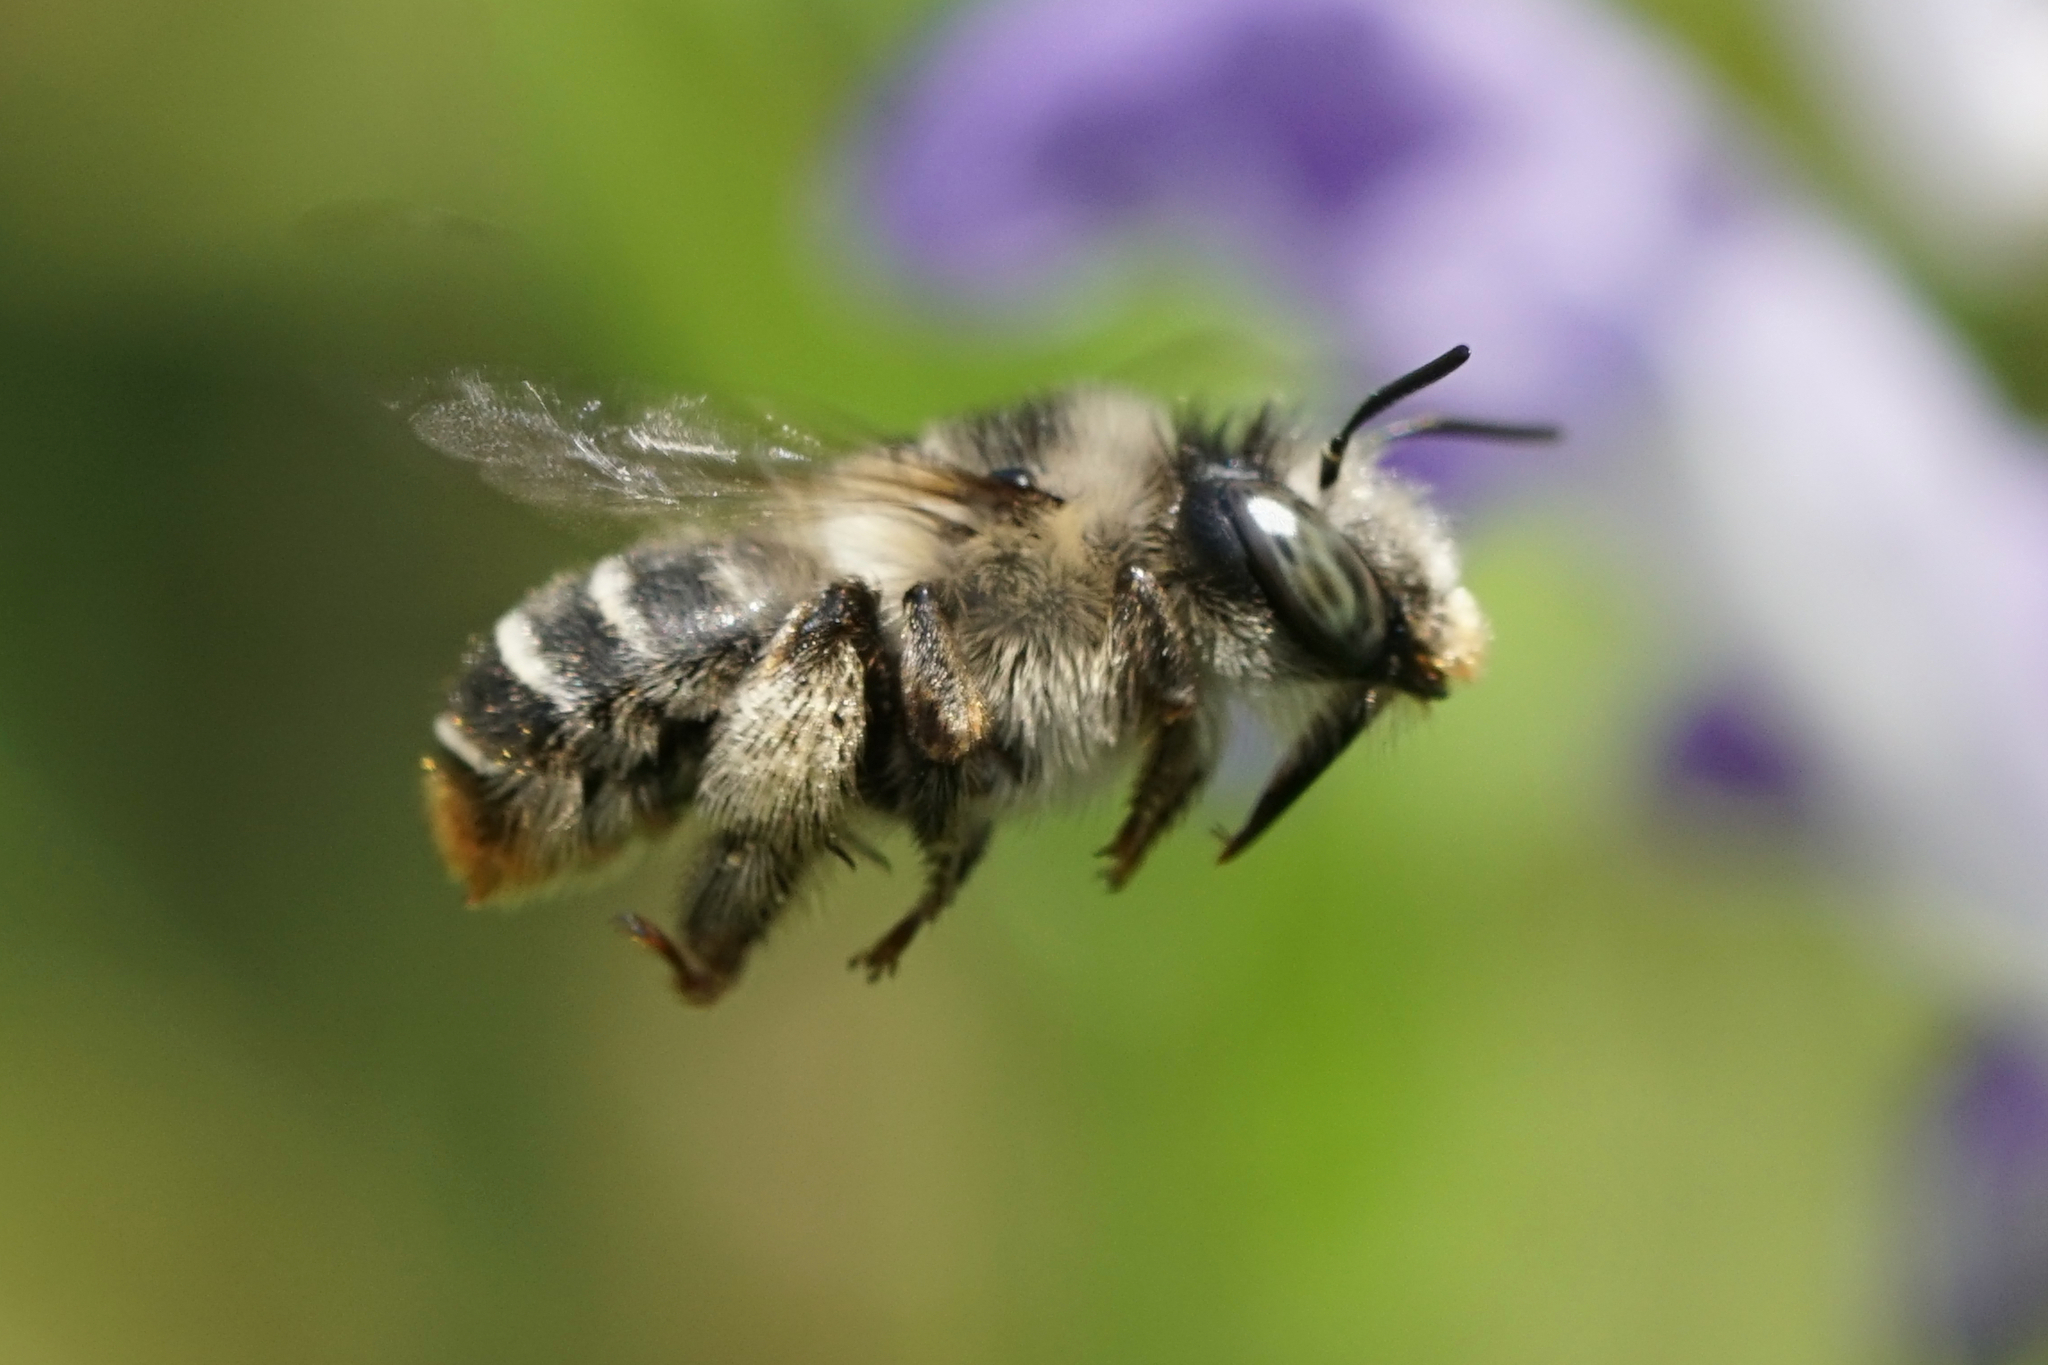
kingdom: Animalia
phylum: Arthropoda
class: Insecta
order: Hymenoptera
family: Apidae
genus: Anthophora
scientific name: Anthophora terminalis
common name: Orange-tipped wood-digger bee
